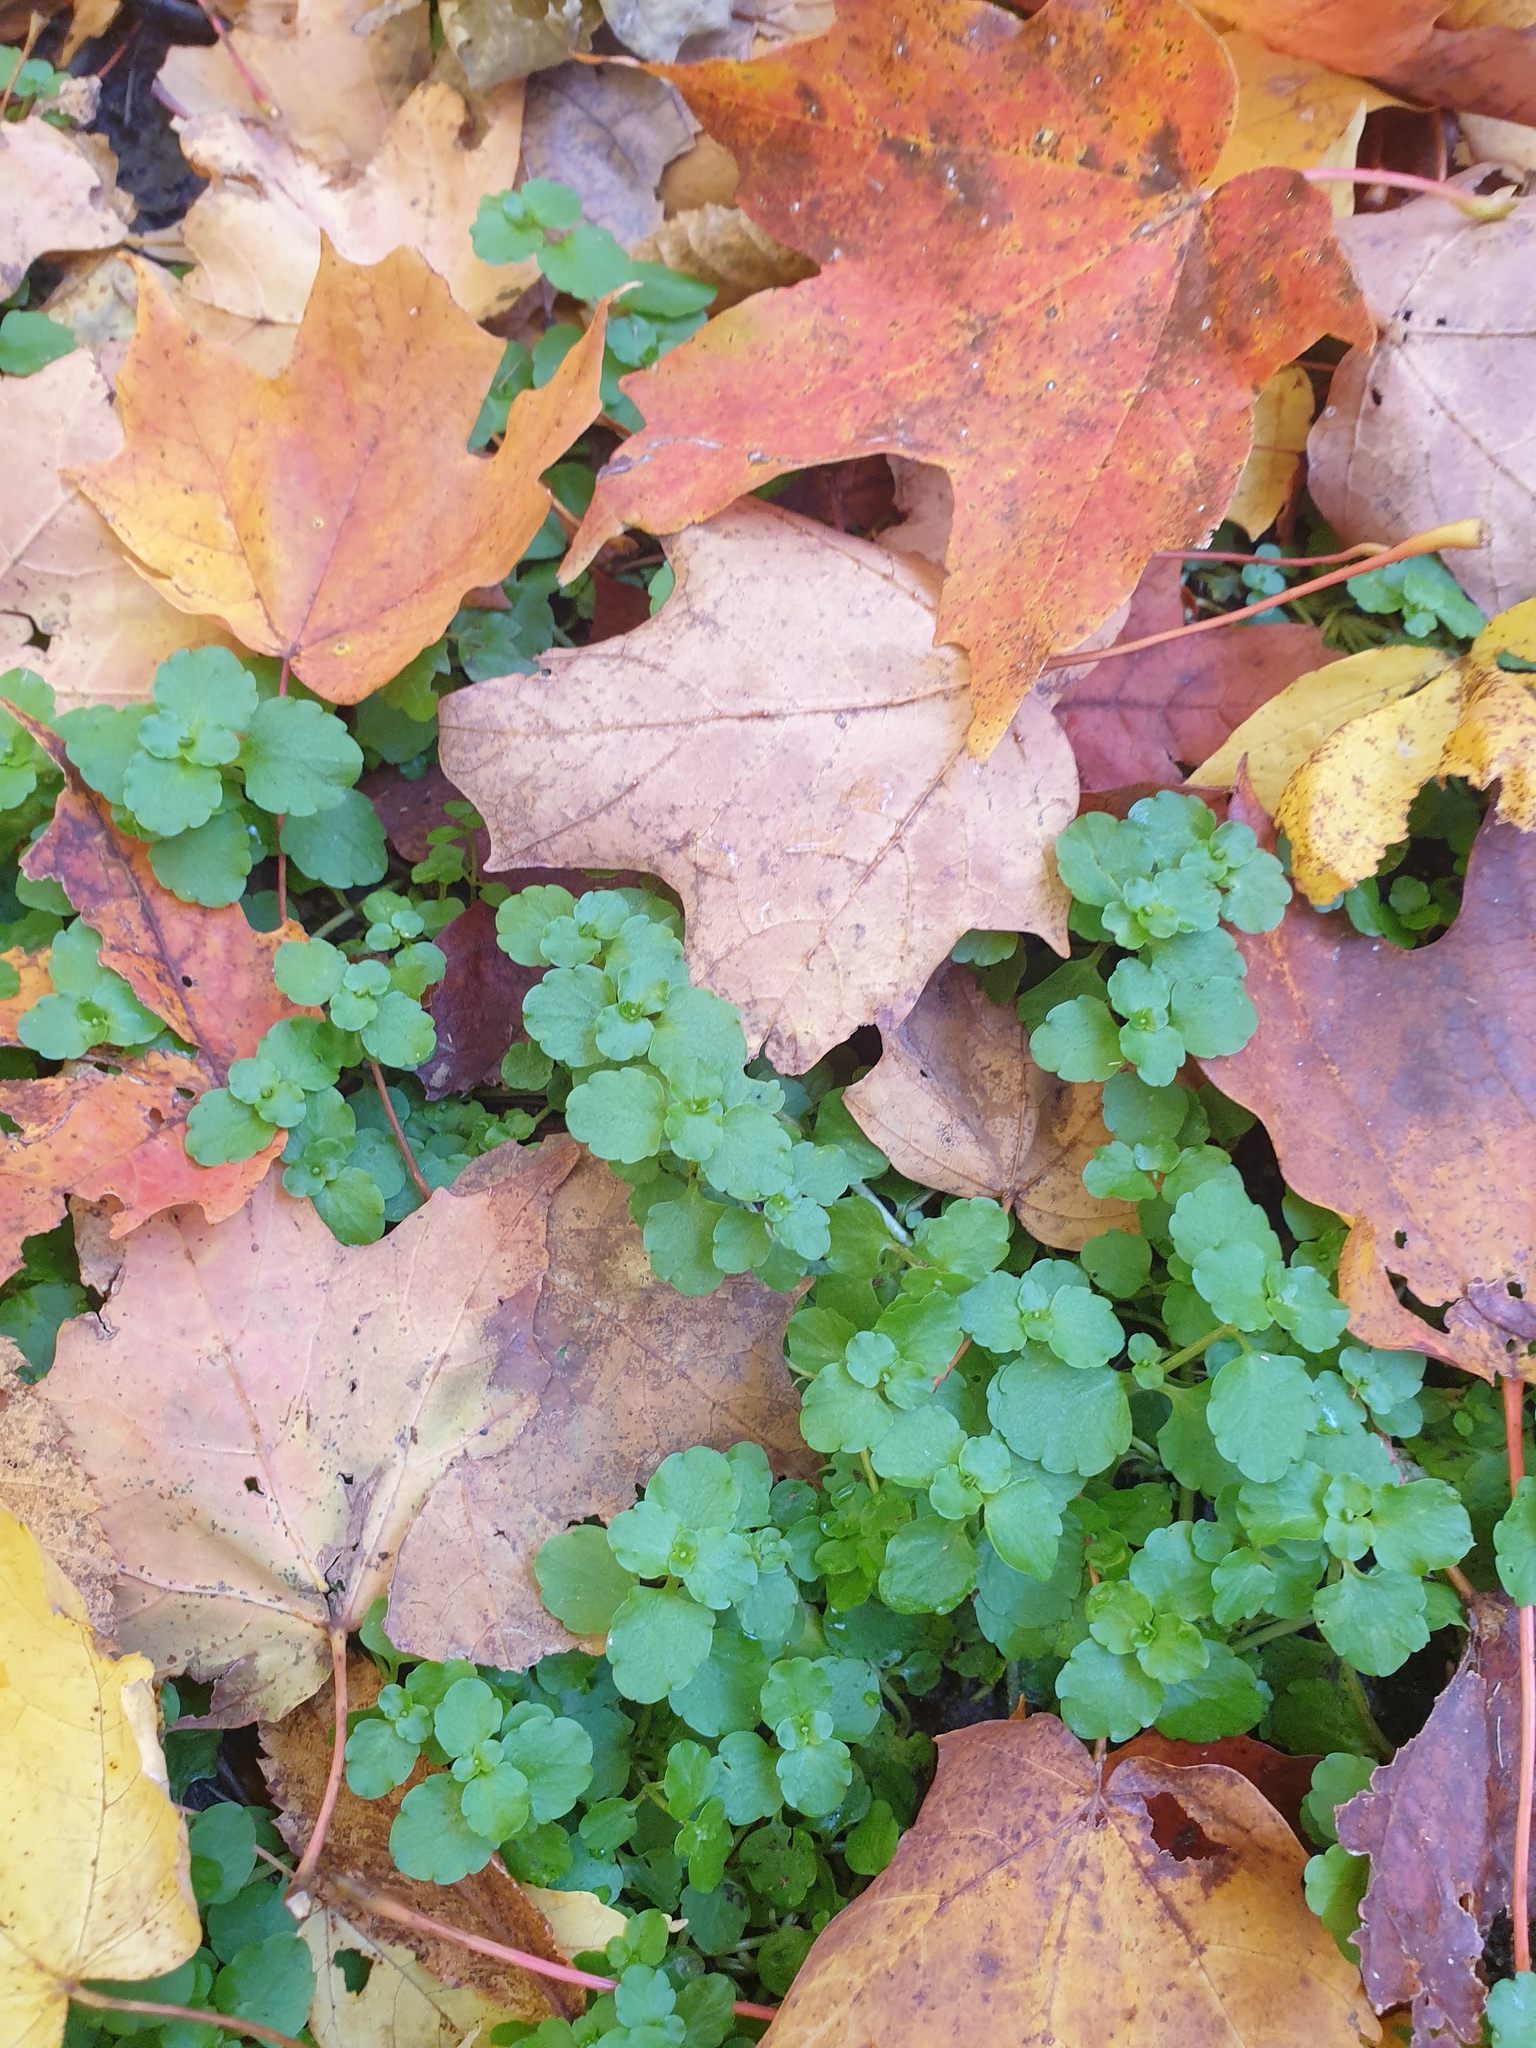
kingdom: Plantae
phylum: Tracheophyta
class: Magnoliopsida
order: Saxifragales
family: Saxifragaceae
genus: Chrysosplenium
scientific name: Chrysosplenium americanum
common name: American golden-saxifrage
